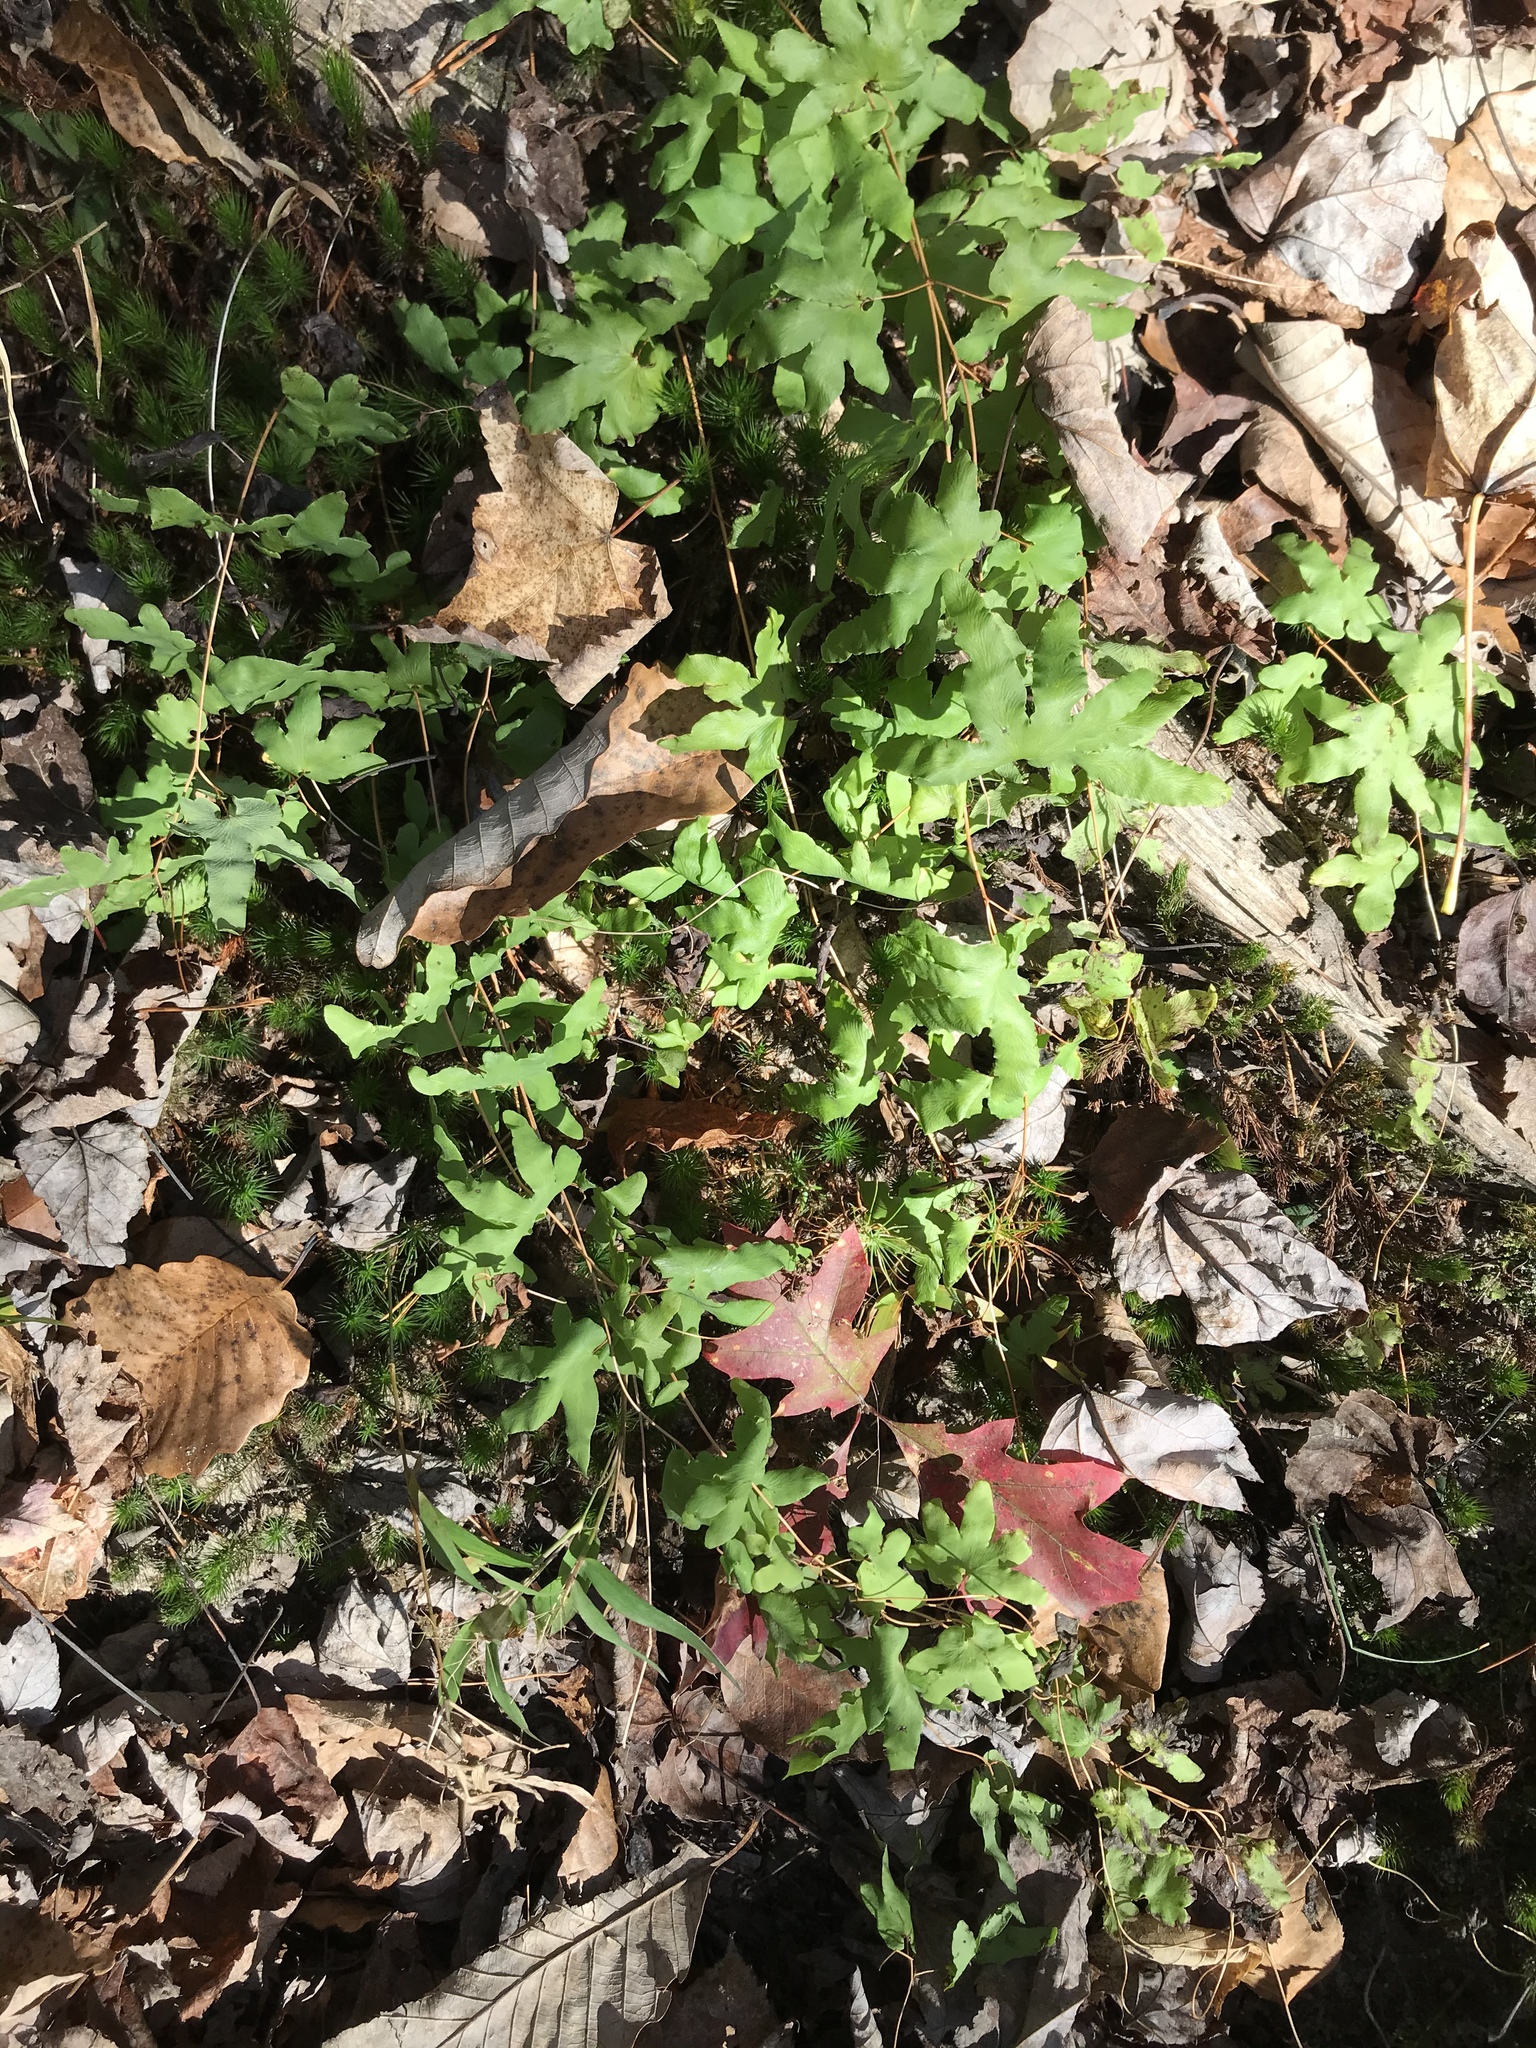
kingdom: Plantae
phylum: Tracheophyta
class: Polypodiopsida
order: Schizaeales
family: Lygodiaceae
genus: Lygodium
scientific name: Lygodium palmatum
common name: American climbing fern
